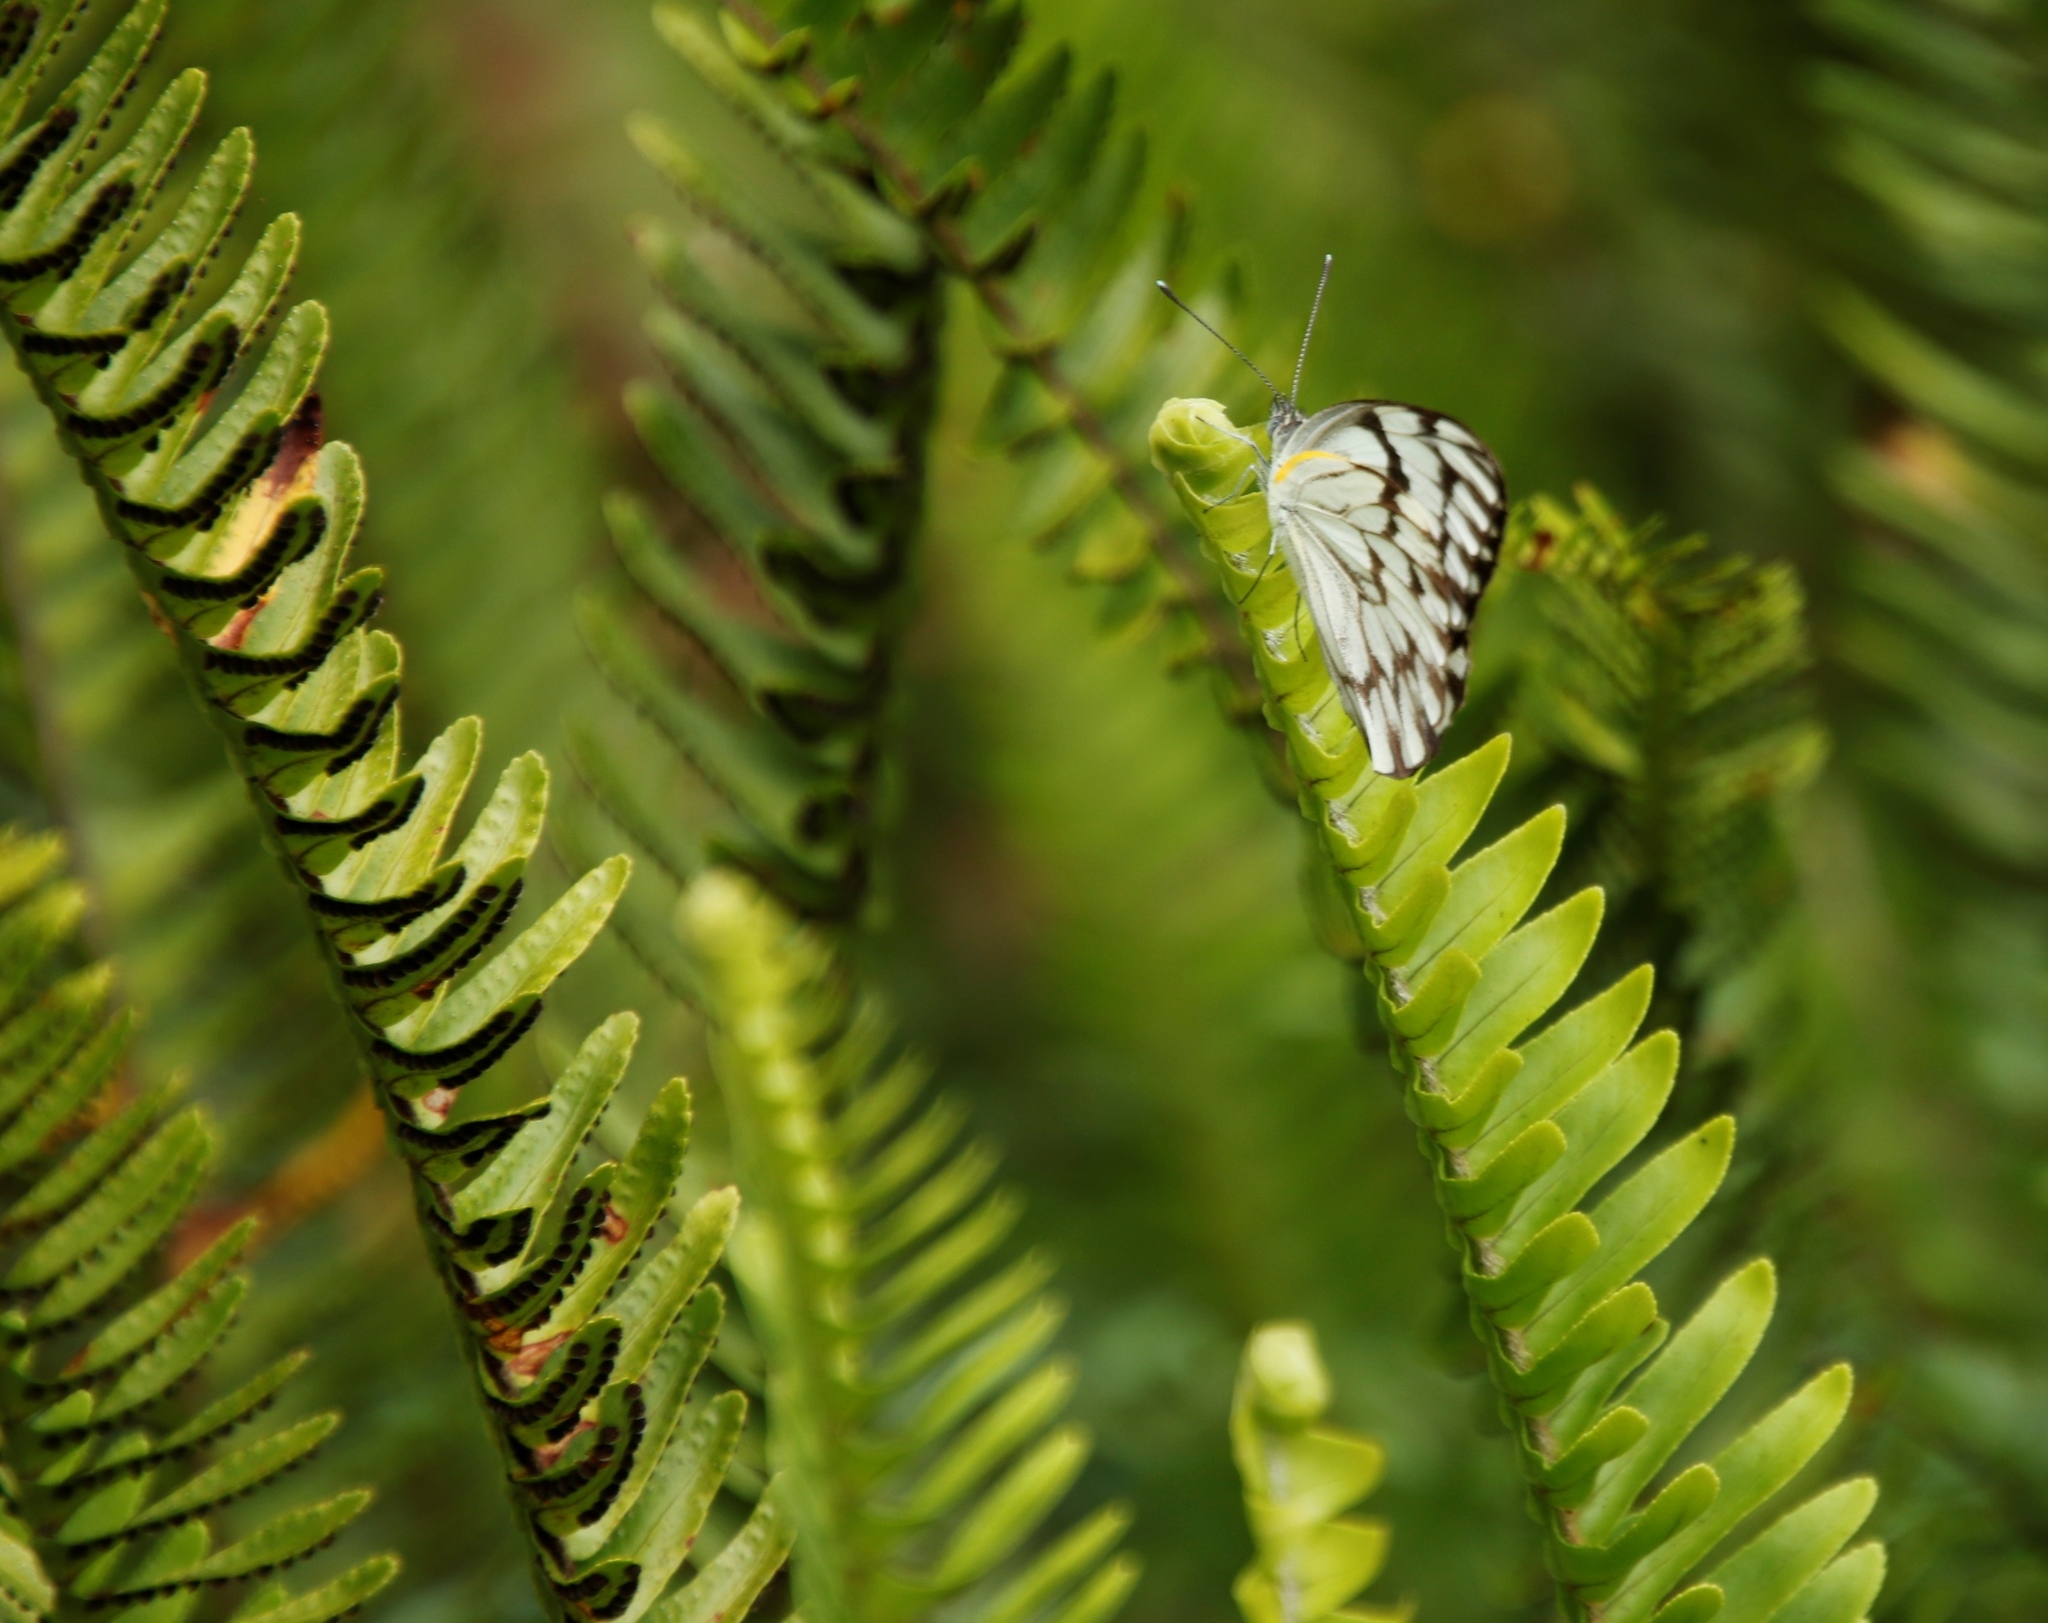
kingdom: Animalia
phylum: Arthropoda
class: Insecta
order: Lepidoptera
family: Pieridae
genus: Belenois
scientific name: Belenois aurota
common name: Brown-veined white
